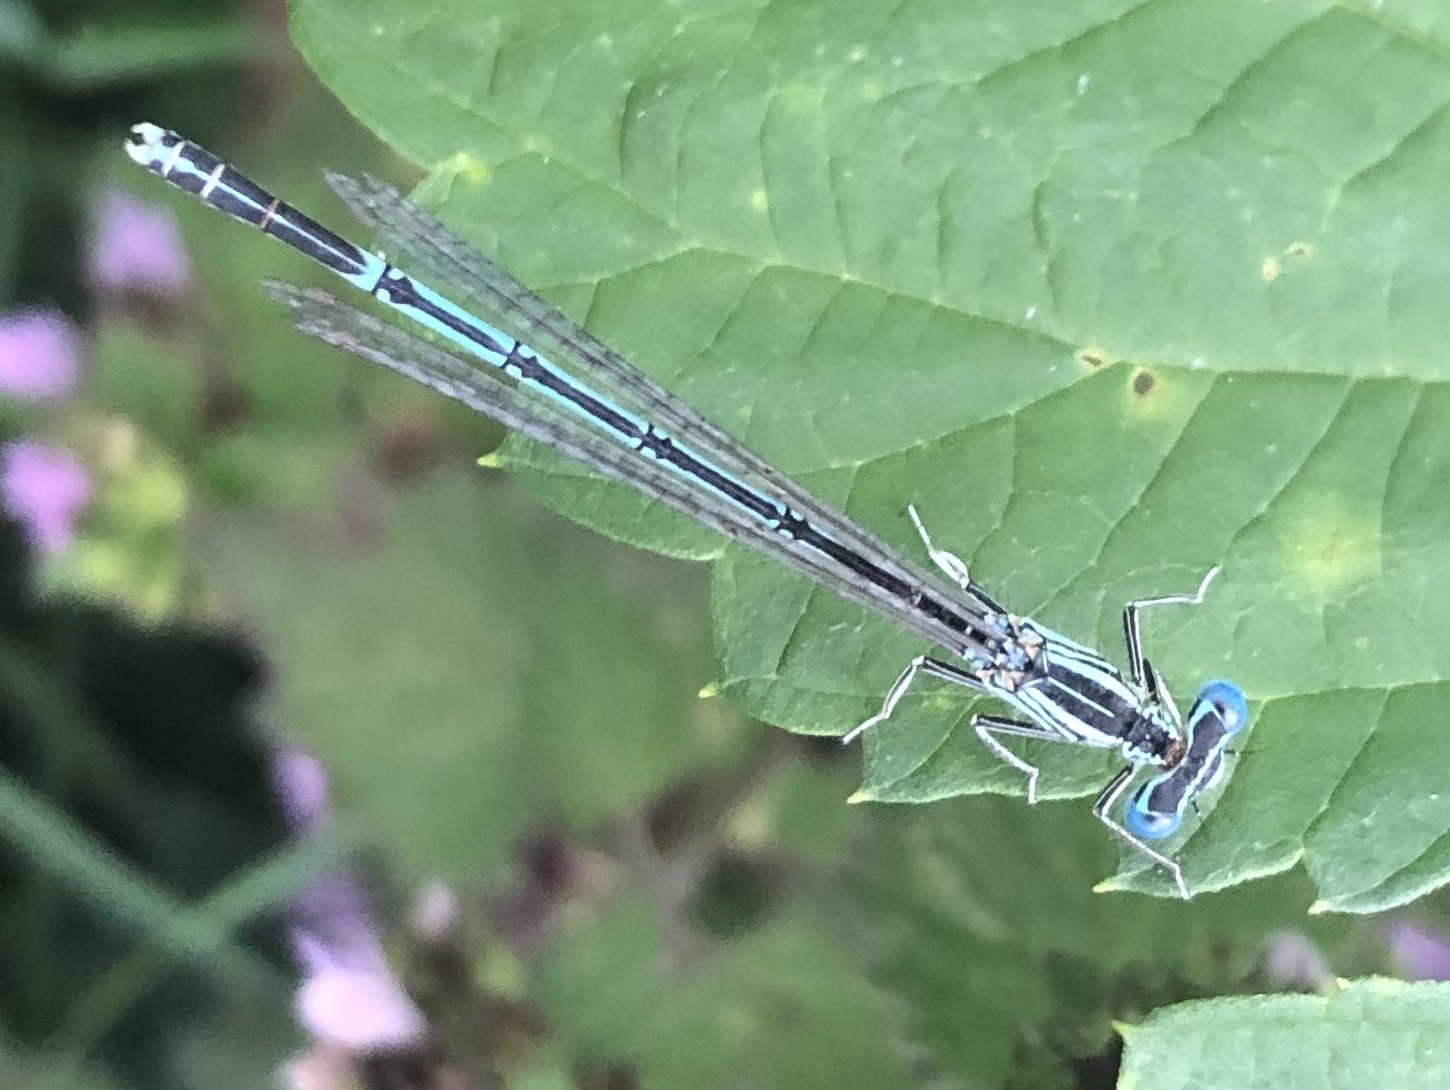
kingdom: Animalia
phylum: Arthropoda
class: Insecta
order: Odonata
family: Platycnemididae
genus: Platycnemis
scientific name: Platycnemis pennipes
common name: White-legged damselfly
